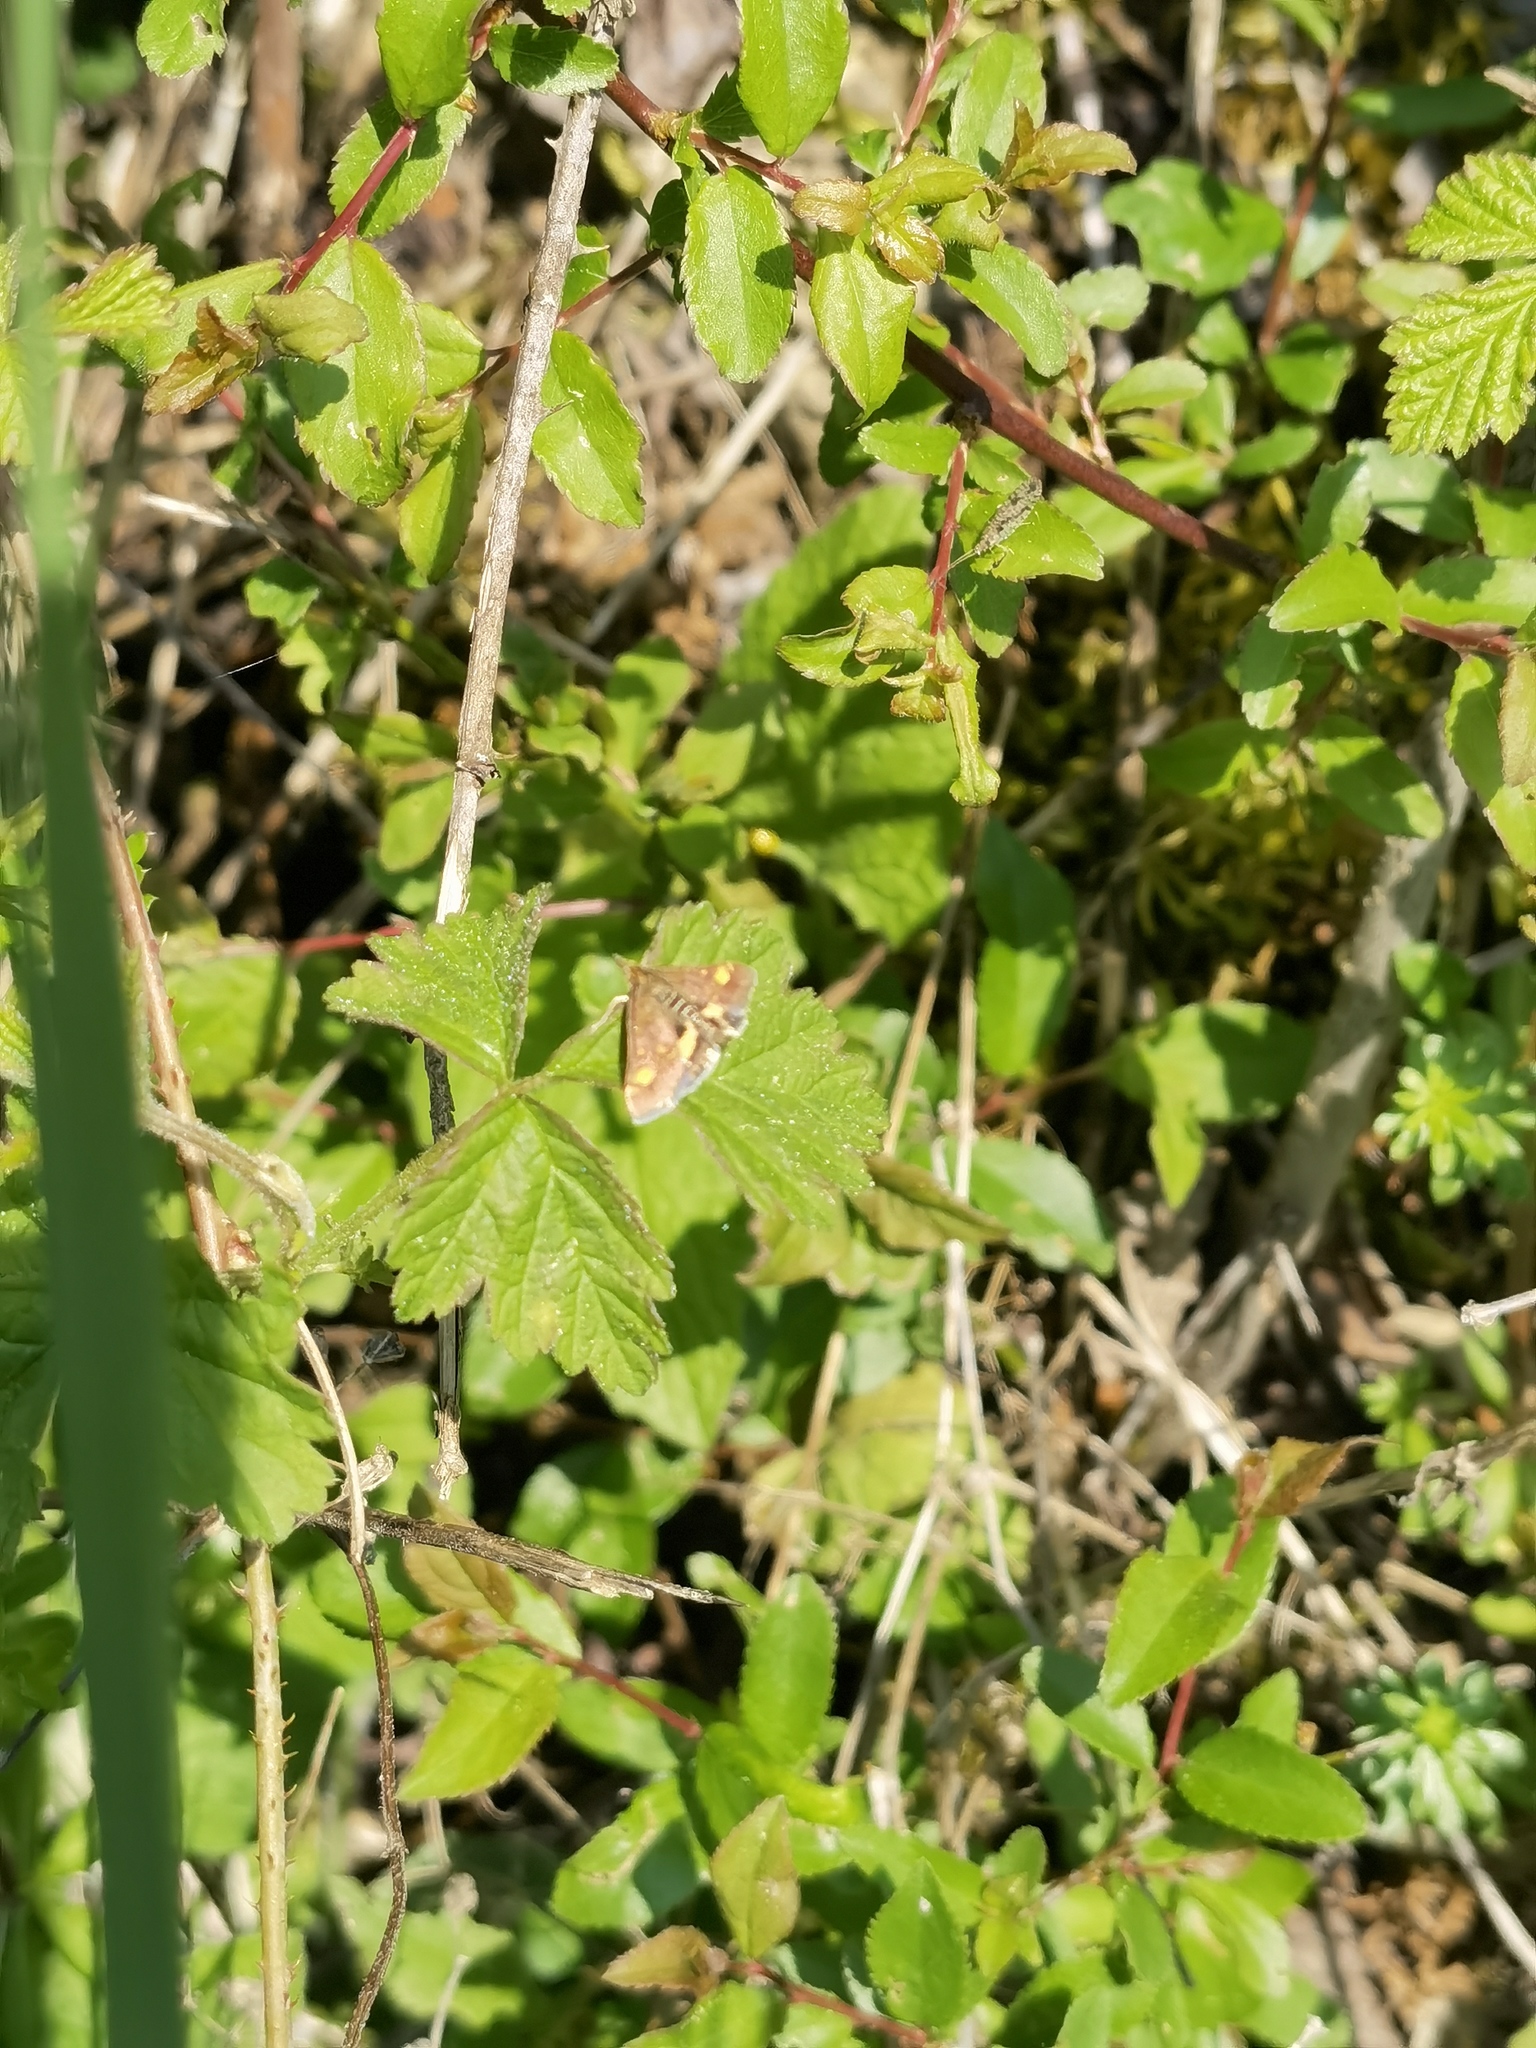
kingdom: Animalia
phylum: Arthropoda
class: Insecta
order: Lepidoptera
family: Crambidae
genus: Pyrausta
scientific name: Pyrausta aurata
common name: Small purple & gold
